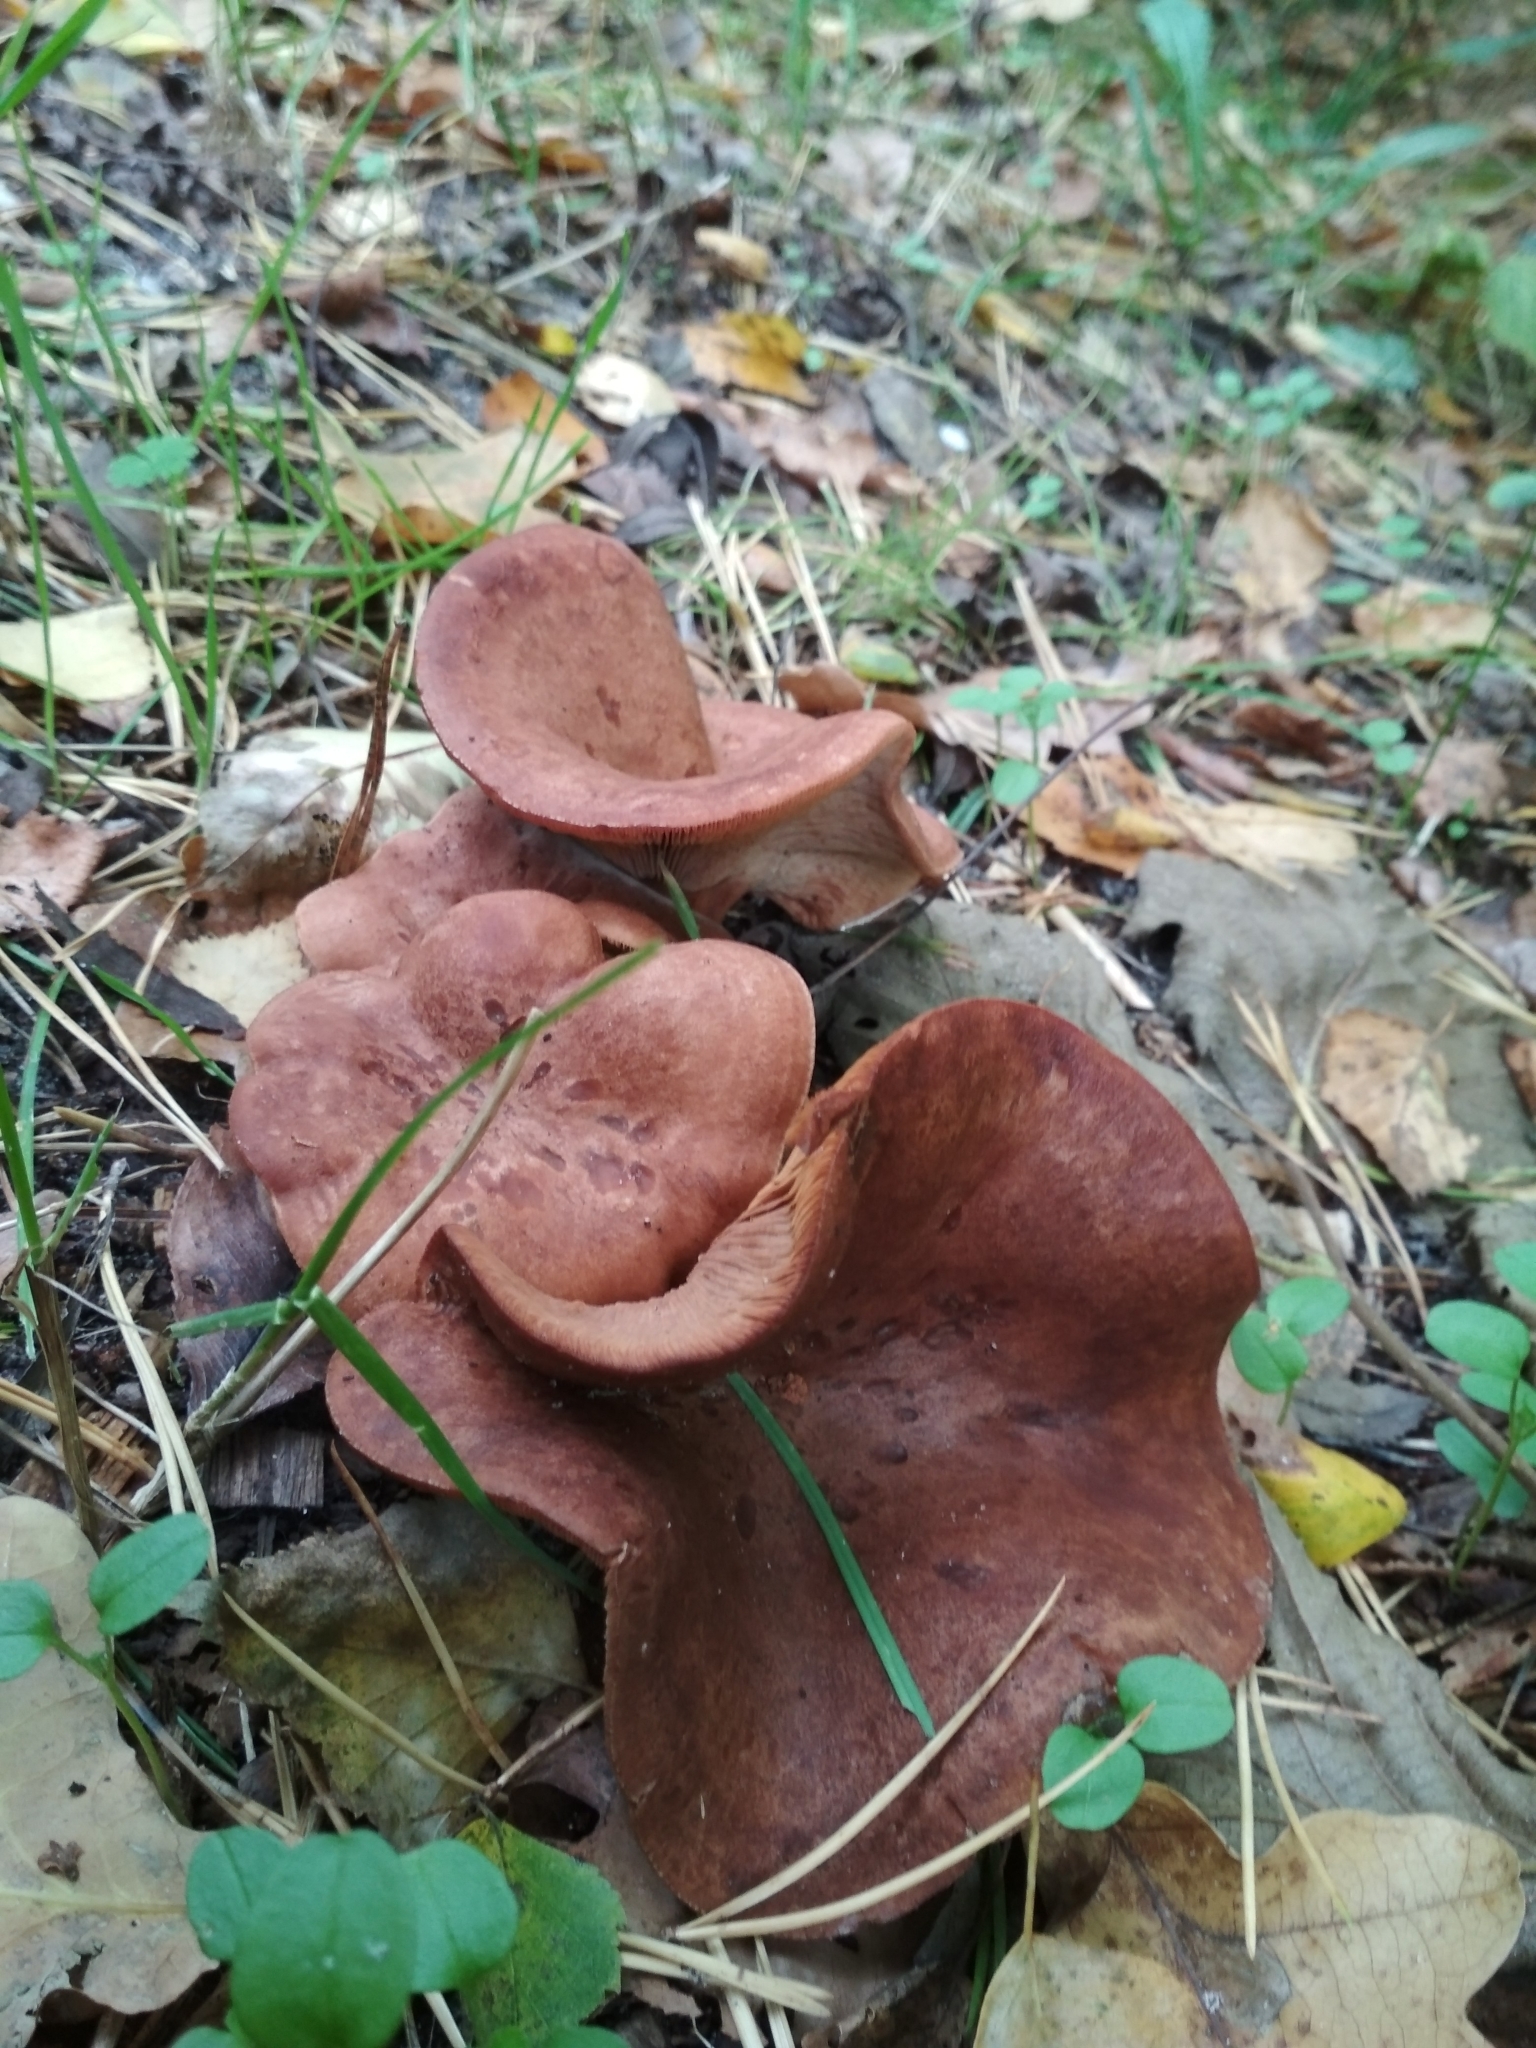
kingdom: Fungi
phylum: Basidiomycota
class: Agaricomycetes
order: Russulales
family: Russulaceae
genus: Lactarius
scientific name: Lactarius rufus
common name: Rufous milk-cap
